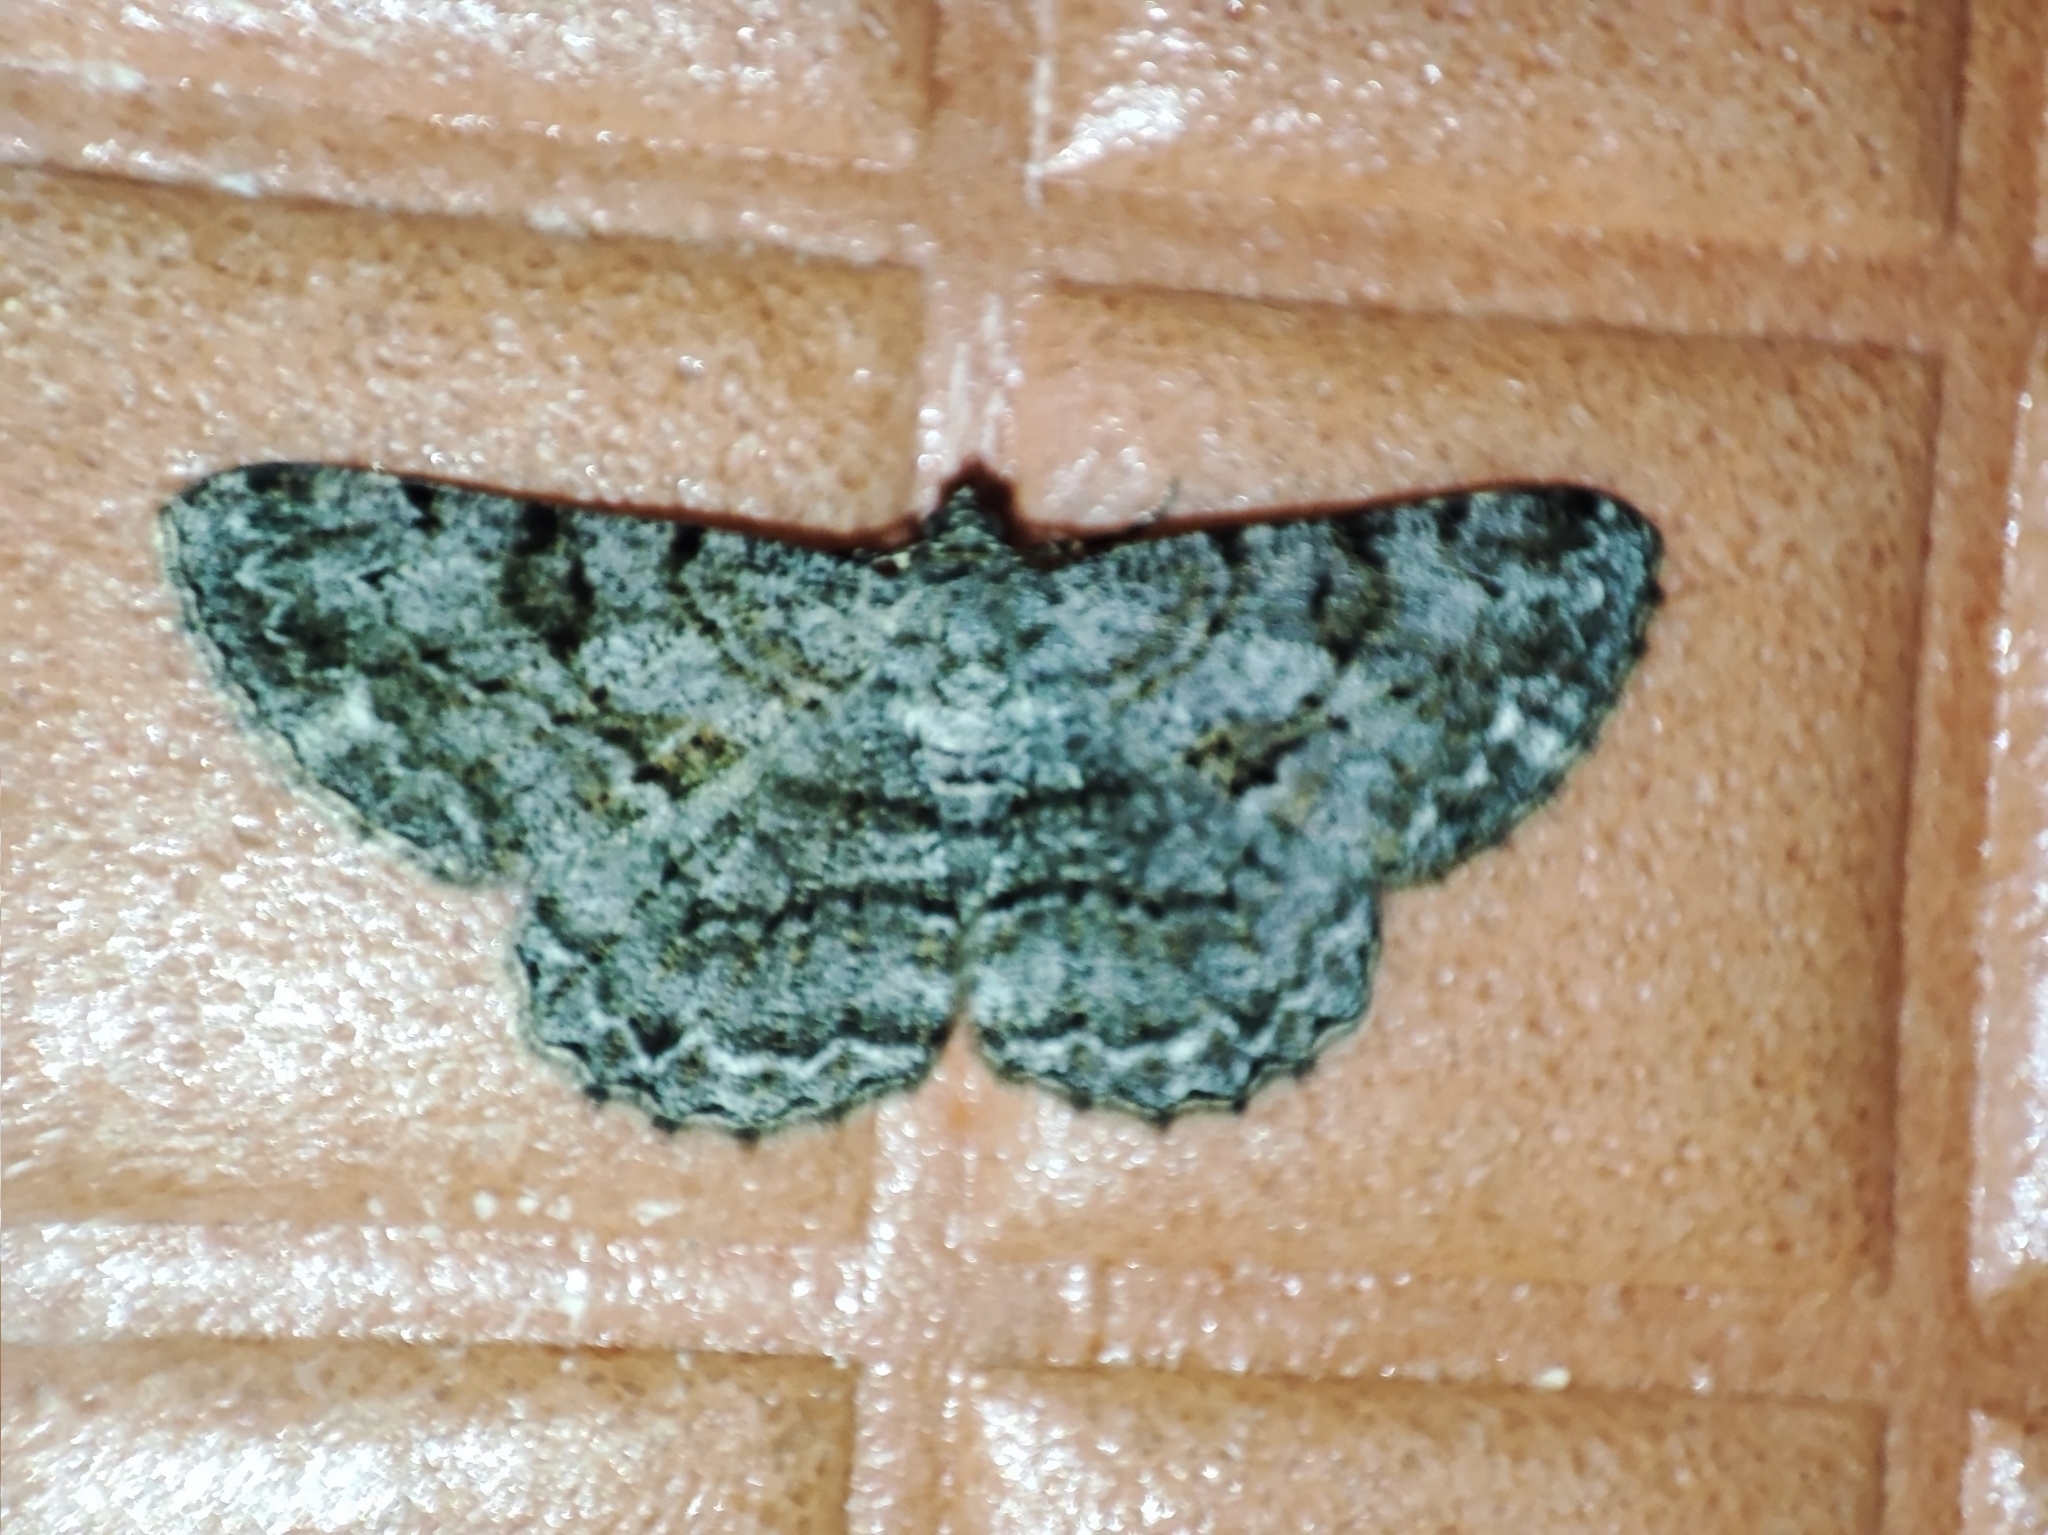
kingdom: Animalia
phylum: Arthropoda
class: Insecta
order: Lepidoptera
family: Geometridae
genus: Peribatodes
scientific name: Peribatodes rhomboidaria
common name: Willow beauty
